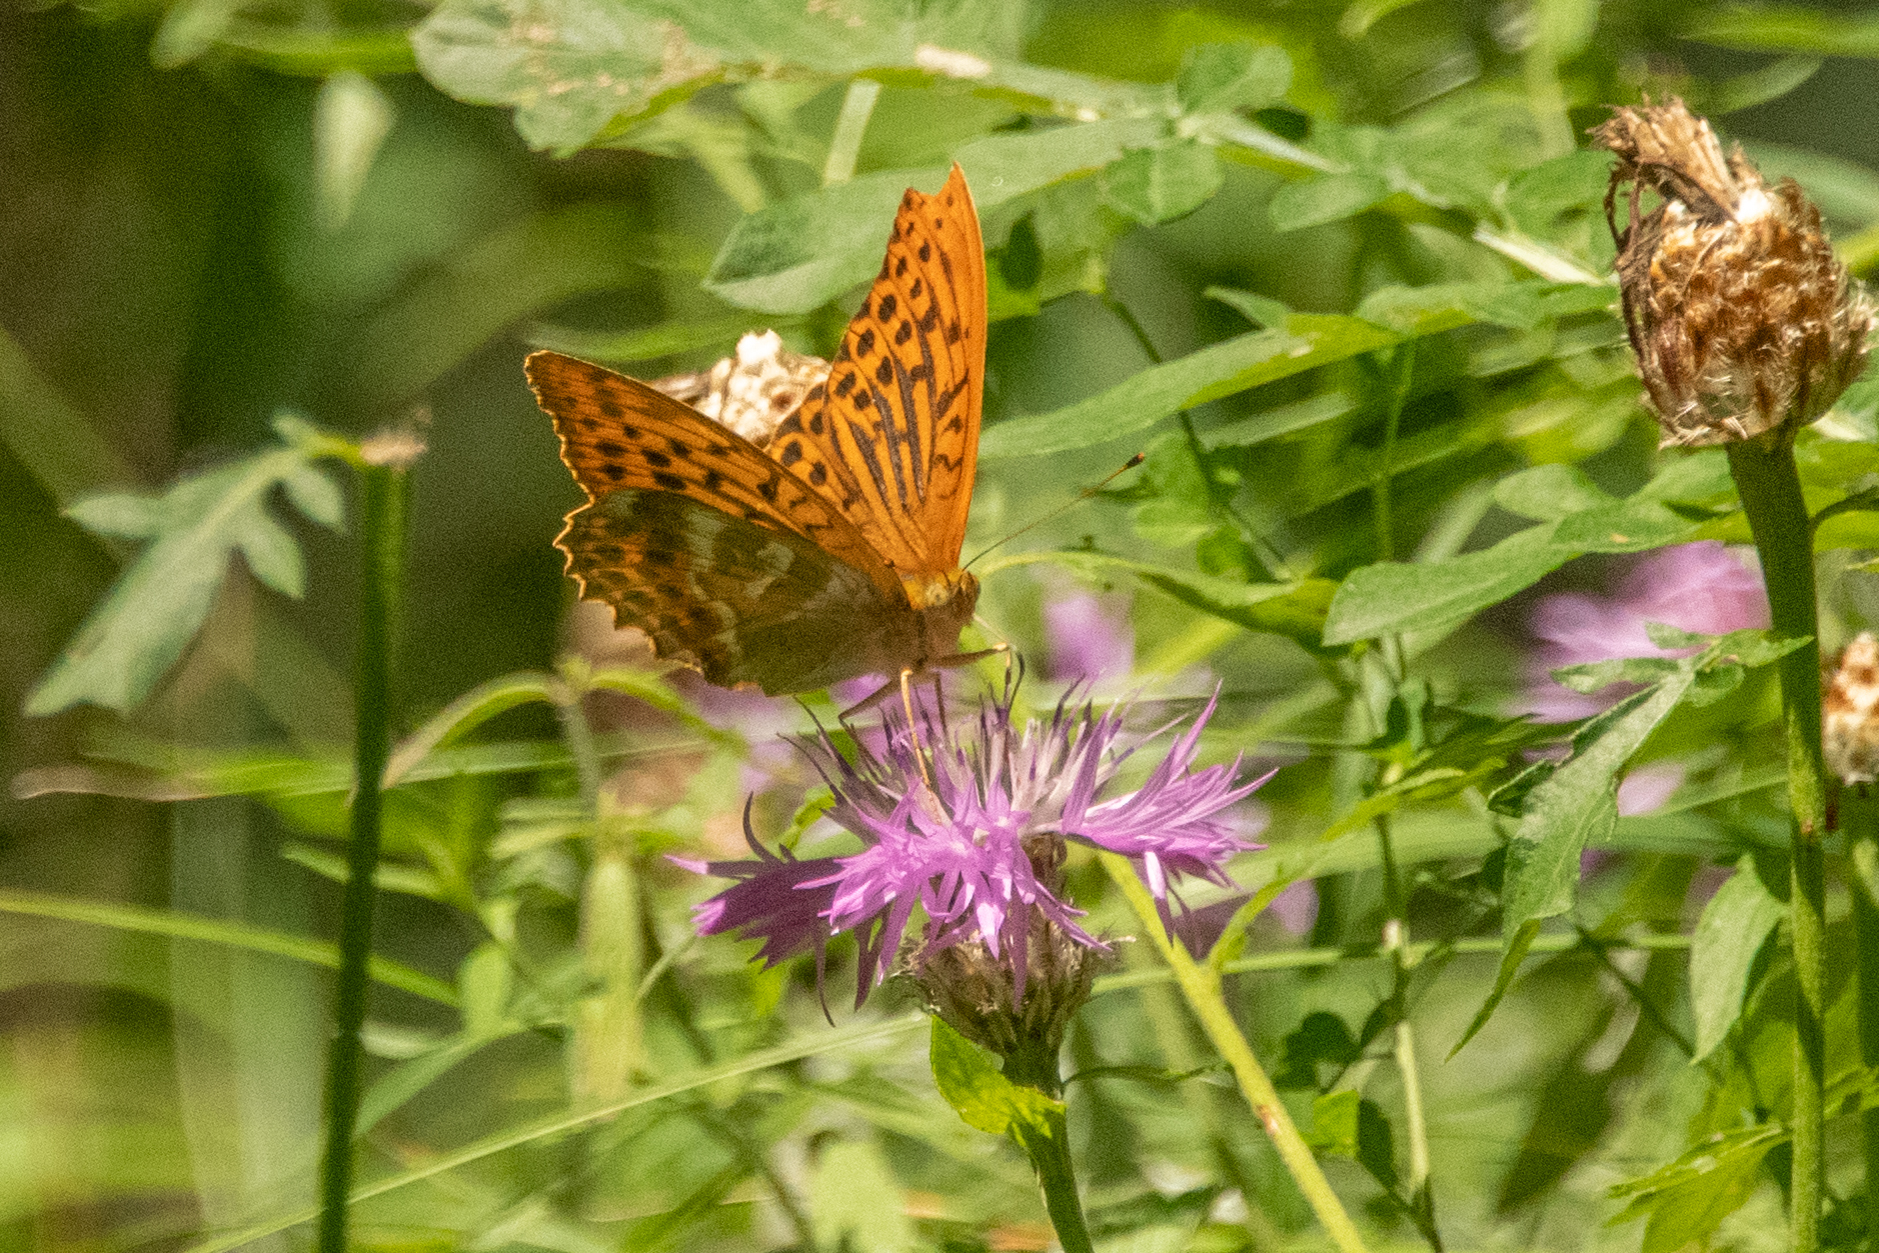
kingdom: Animalia
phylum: Arthropoda
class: Insecta
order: Lepidoptera
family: Nymphalidae
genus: Argynnis
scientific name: Argynnis paphia
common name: Silver-washed fritillary
